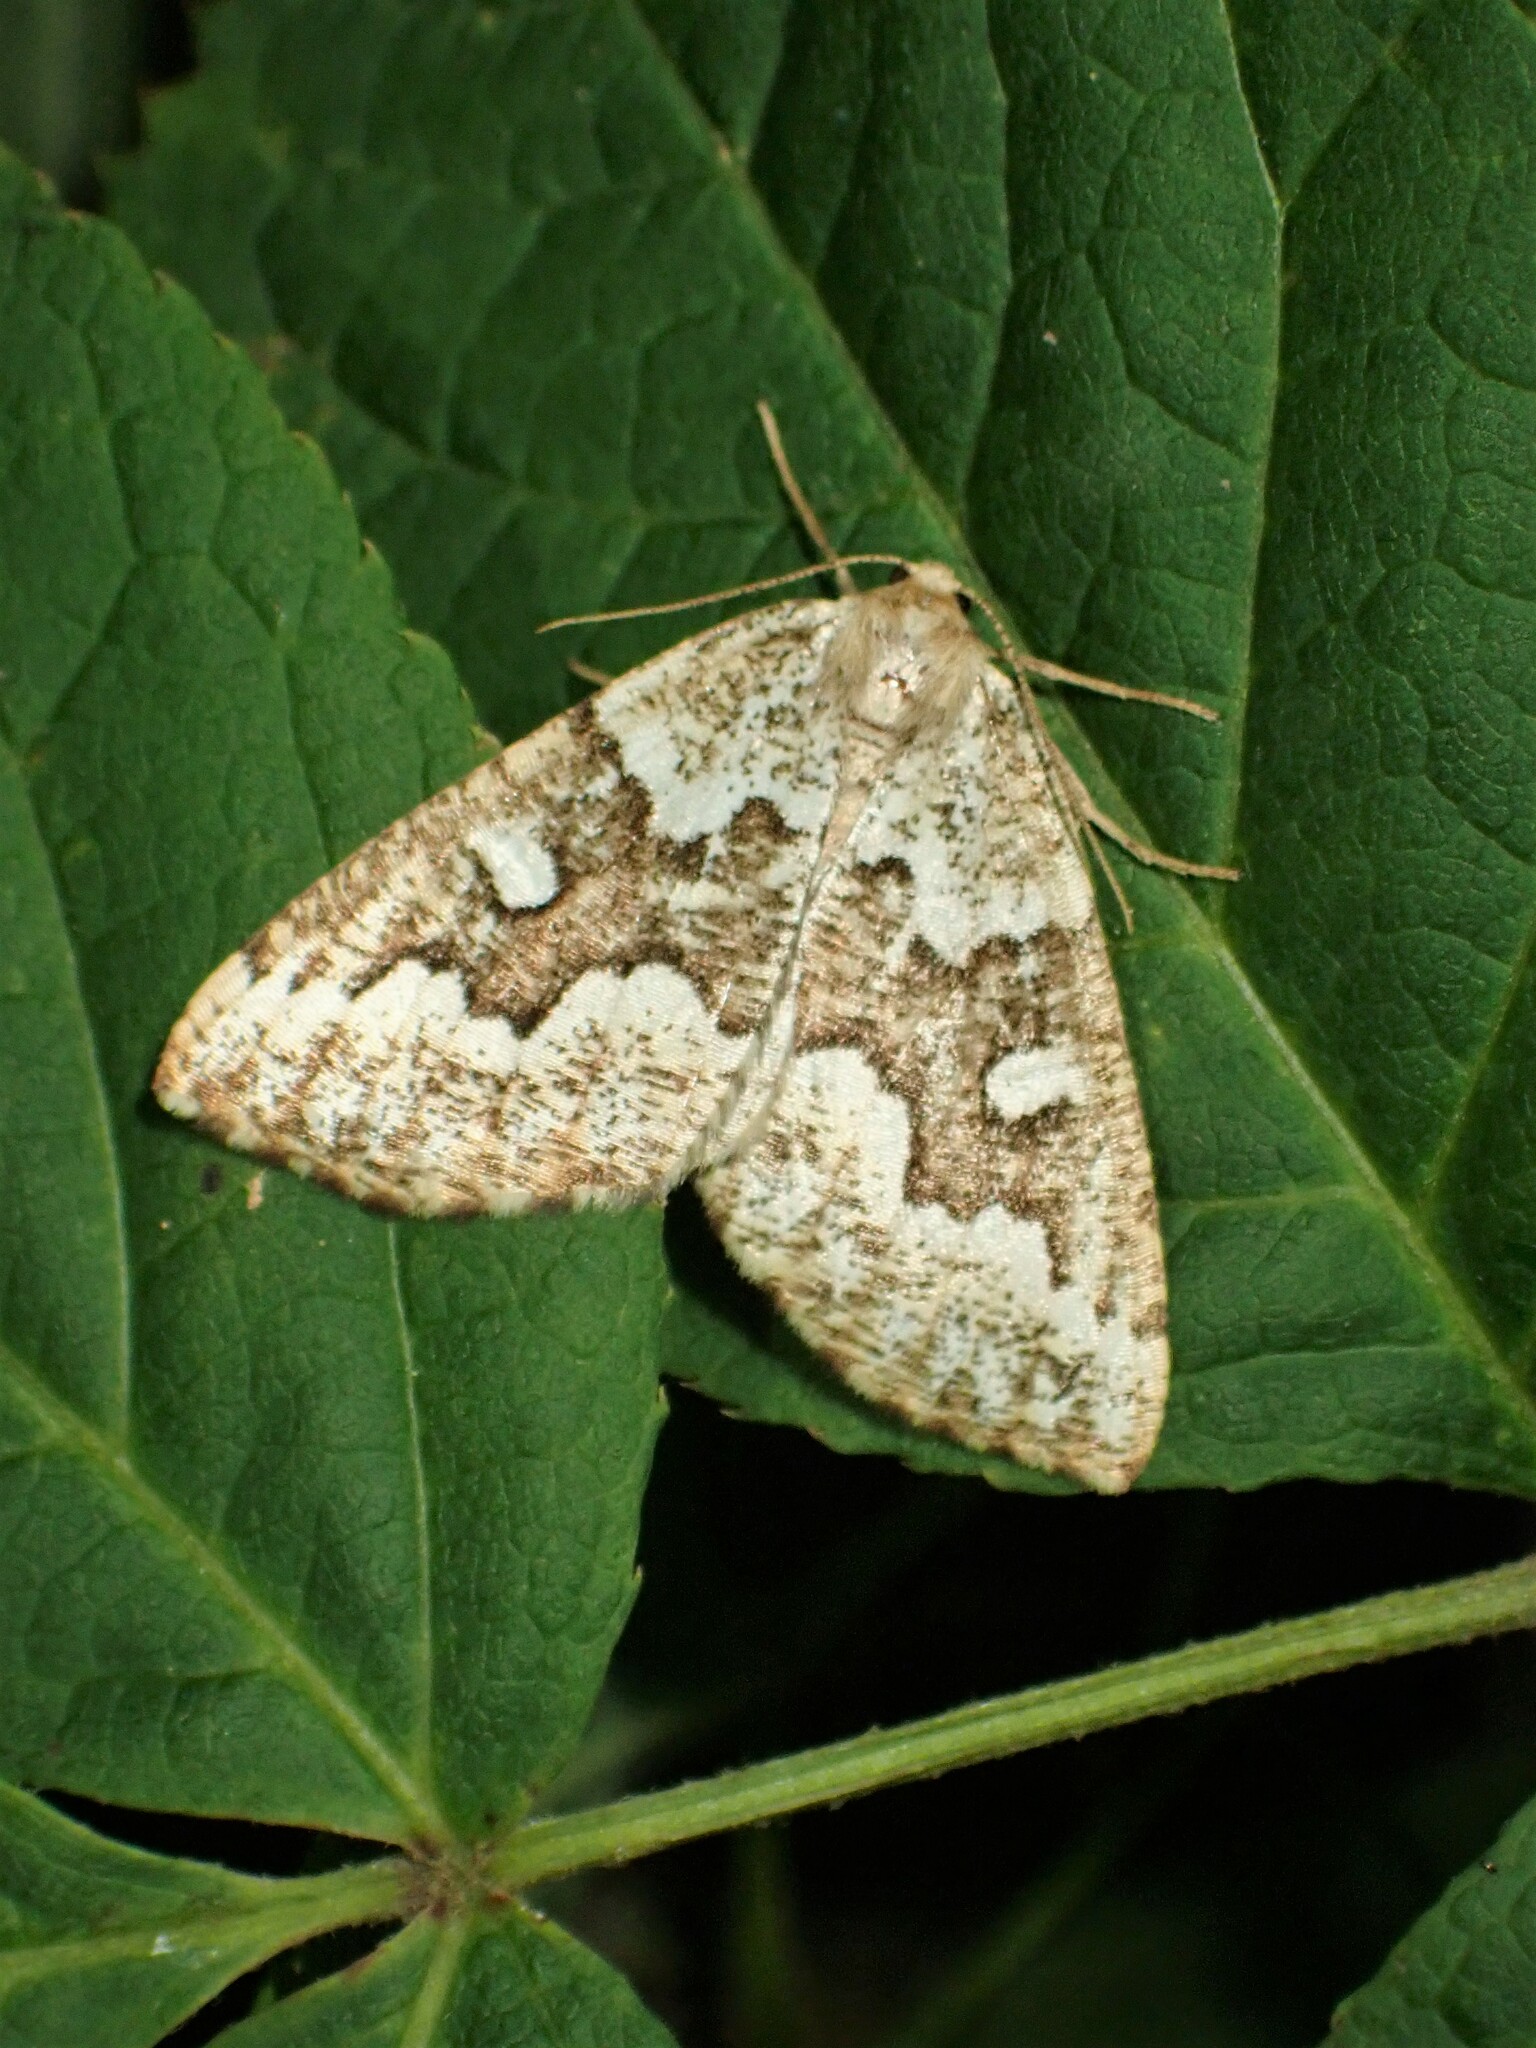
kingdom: Animalia
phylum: Arthropoda
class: Insecta
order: Lepidoptera
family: Geometridae
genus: Caripeta
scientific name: Caripeta divisata
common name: Gray spruce looper
